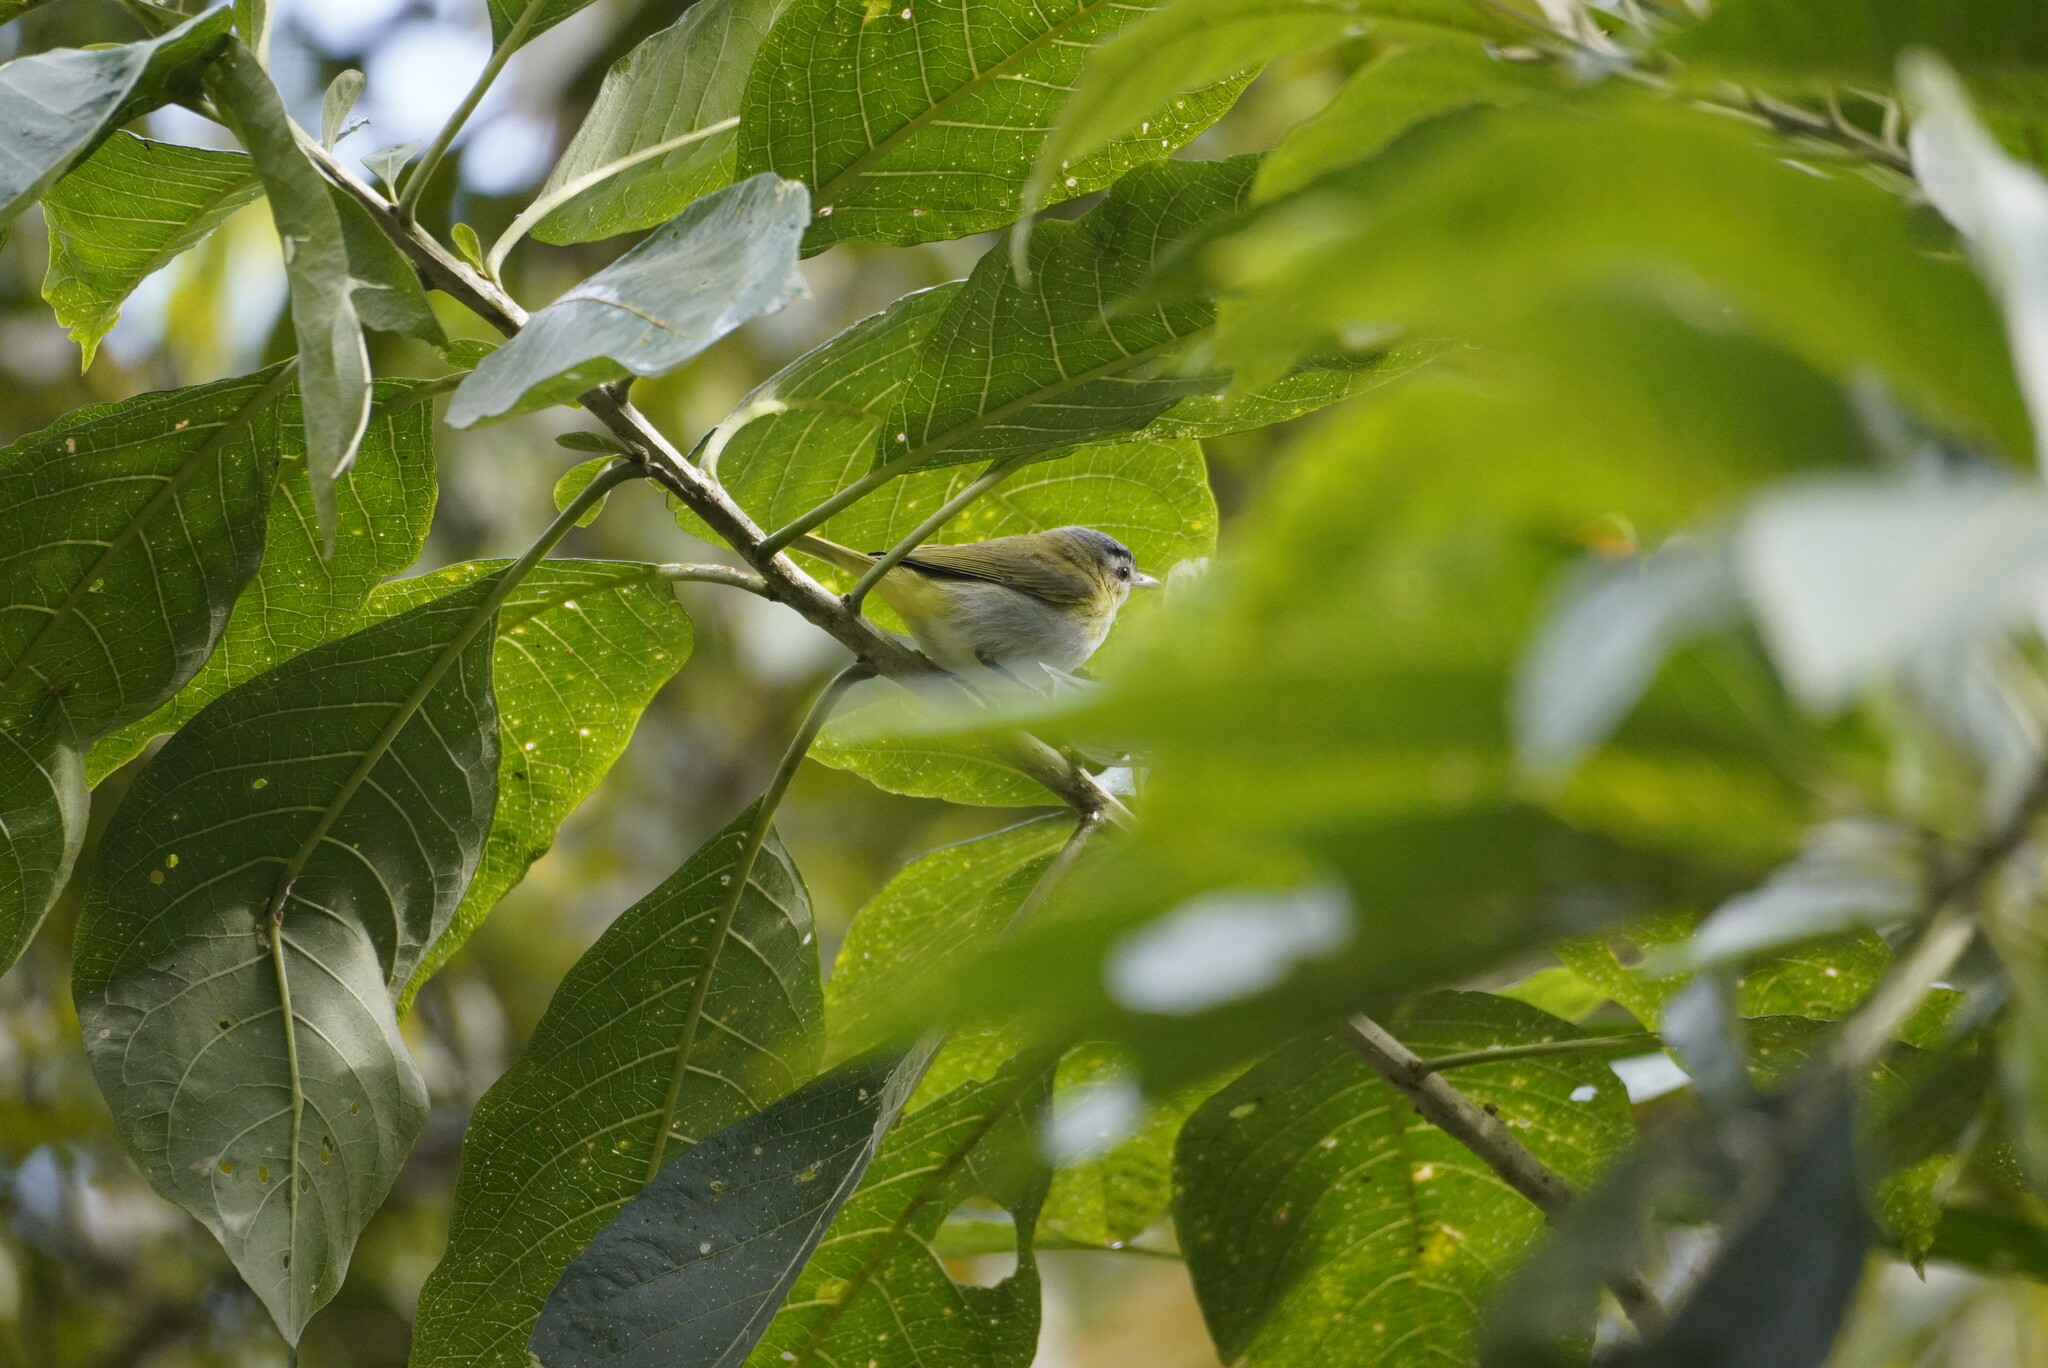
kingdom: Animalia
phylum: Chordata
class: Aves
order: Passeriformes
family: Vireonidae
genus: Vireo
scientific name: Vireo olivaceus
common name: Red-eyed vireo
